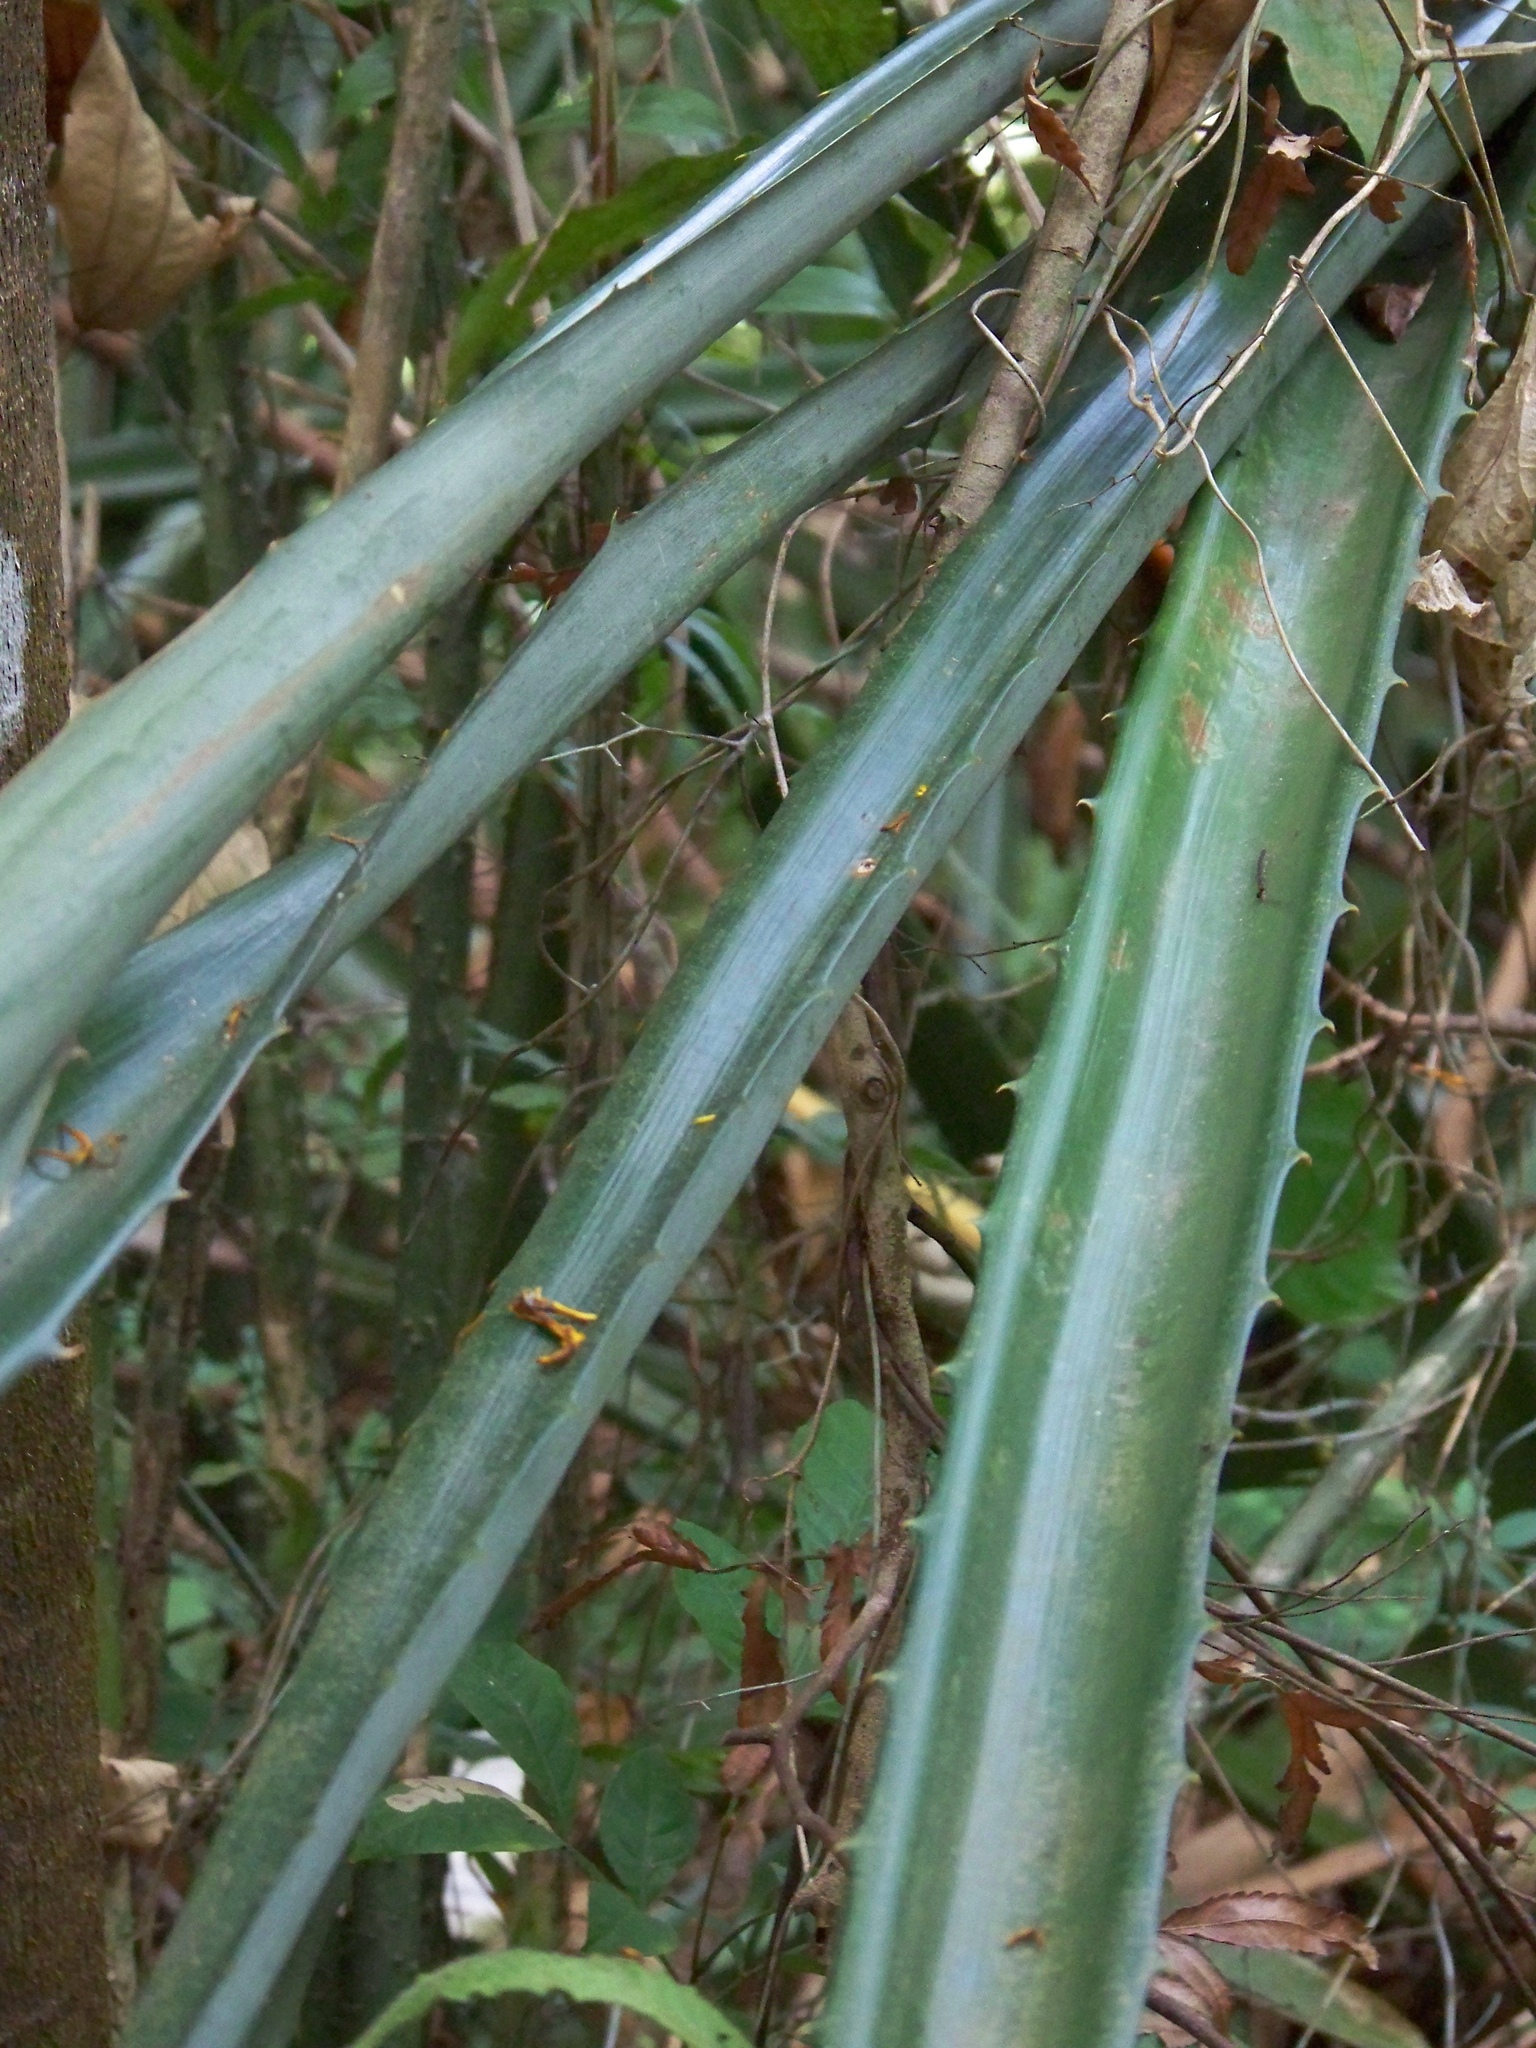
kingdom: Plantae
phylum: Tracheophyta
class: Liliopsida
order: Poales
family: Bromeliaceae
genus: Aechmea
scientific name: Aechmea magdalenae
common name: Arghan
